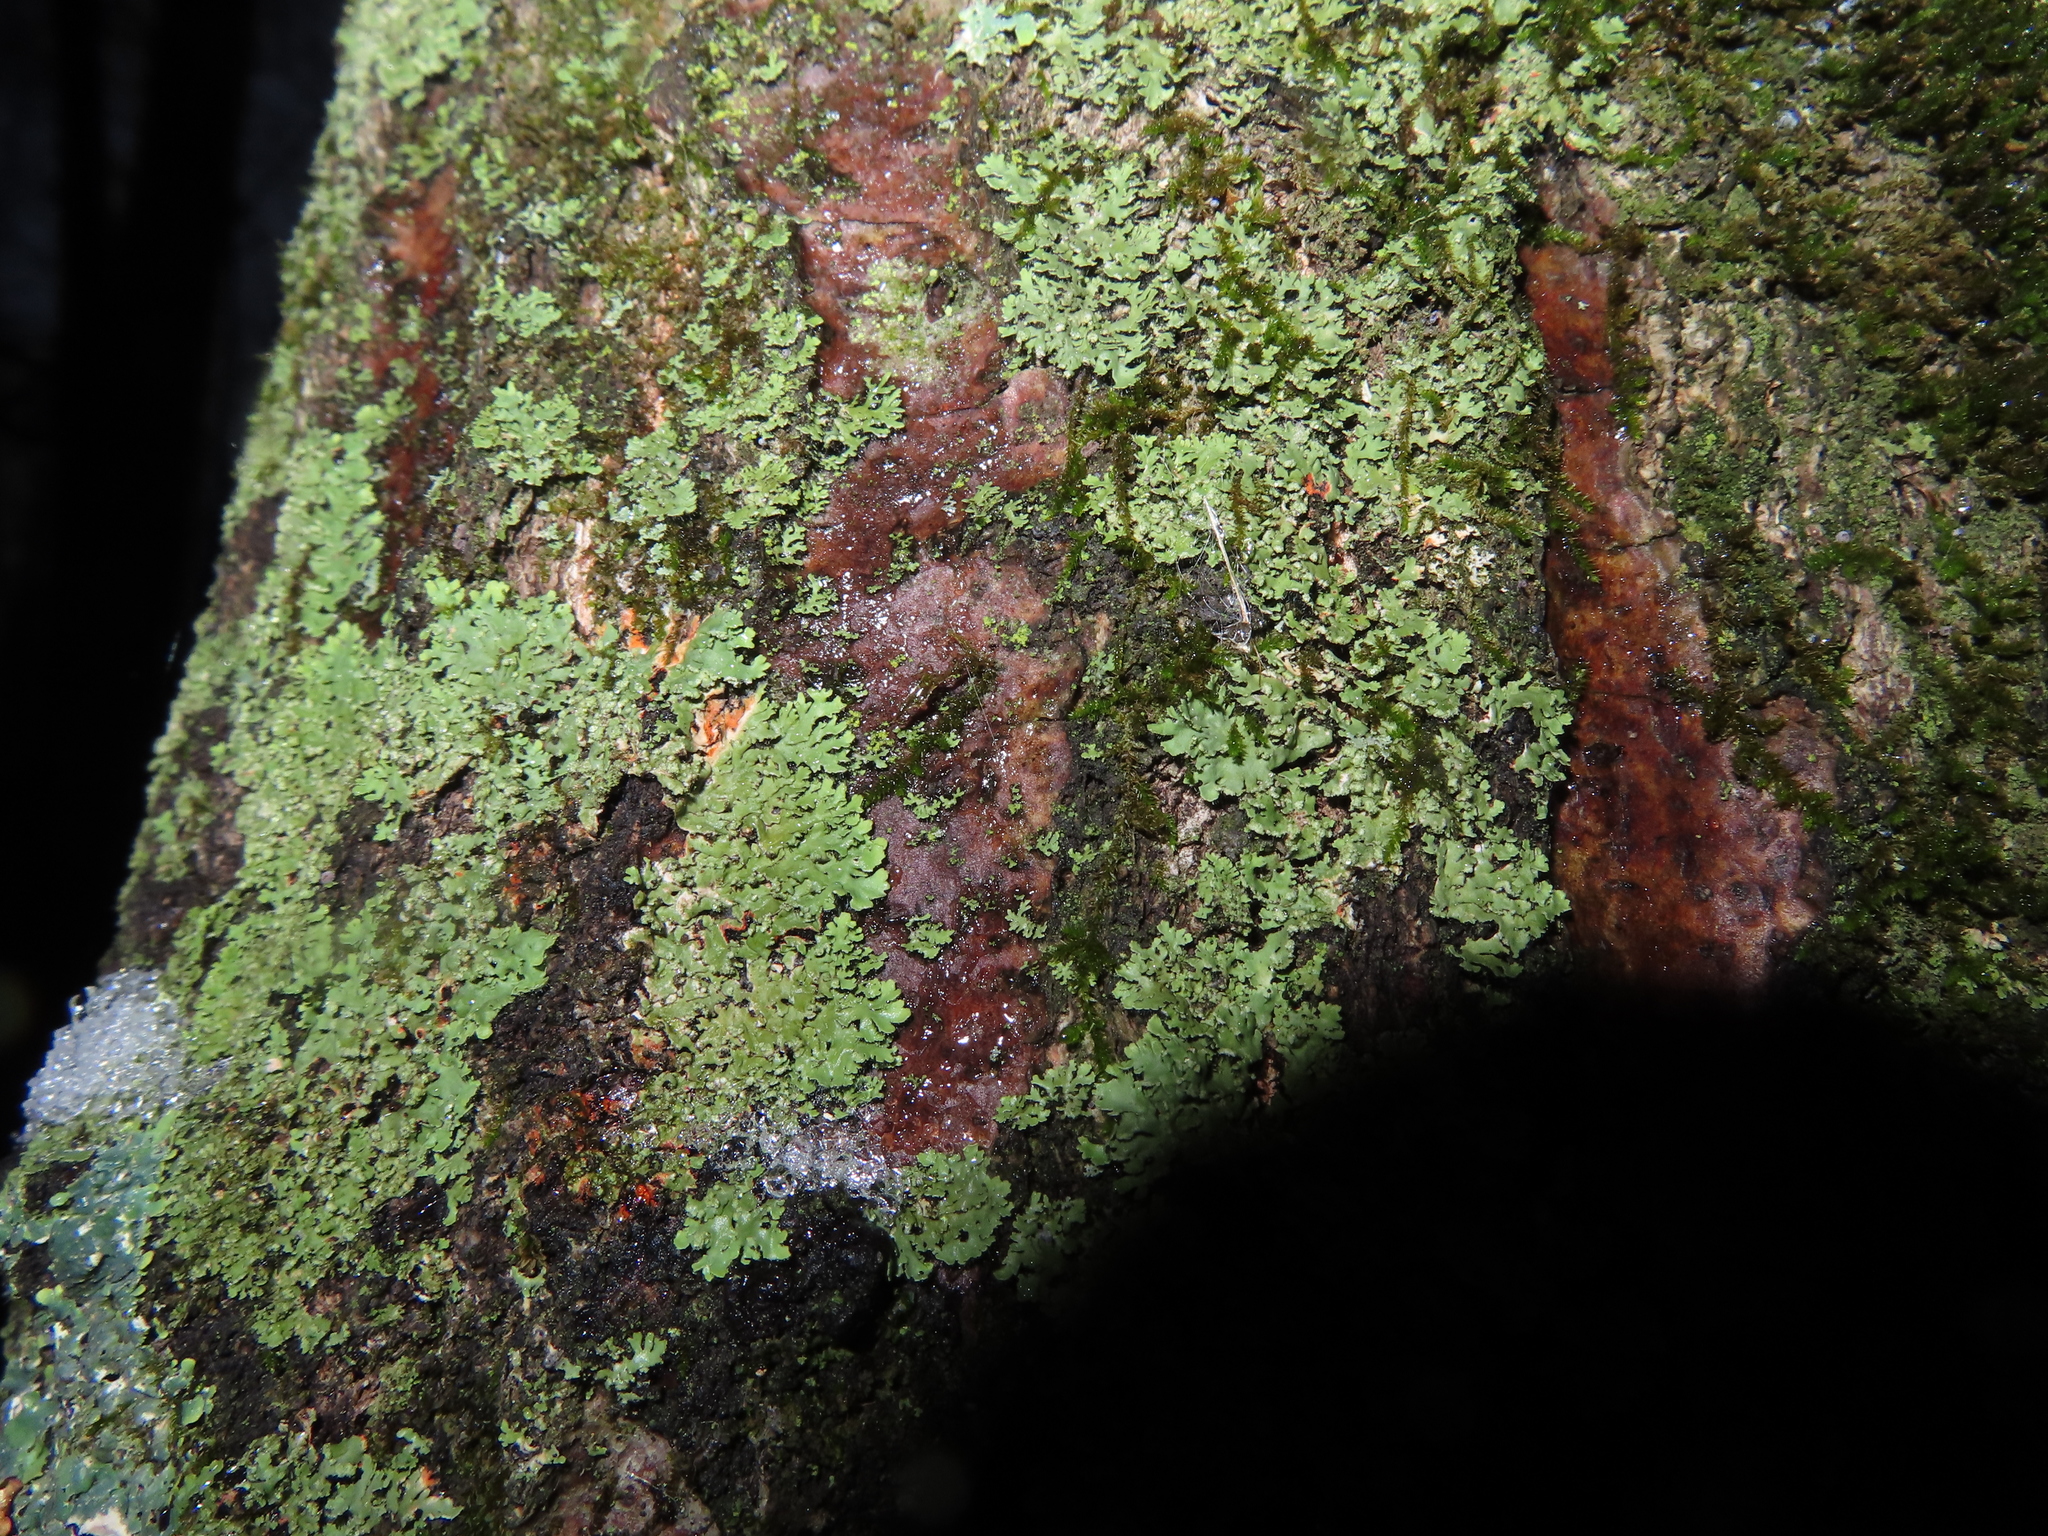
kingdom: Fungi
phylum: Ascomycota
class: Lecanoromycetes
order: Caliciales
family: Physciaceae
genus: Phaeophyscia
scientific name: Phaeophyscia rubropulchra
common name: Orange-cored shadow lichen
